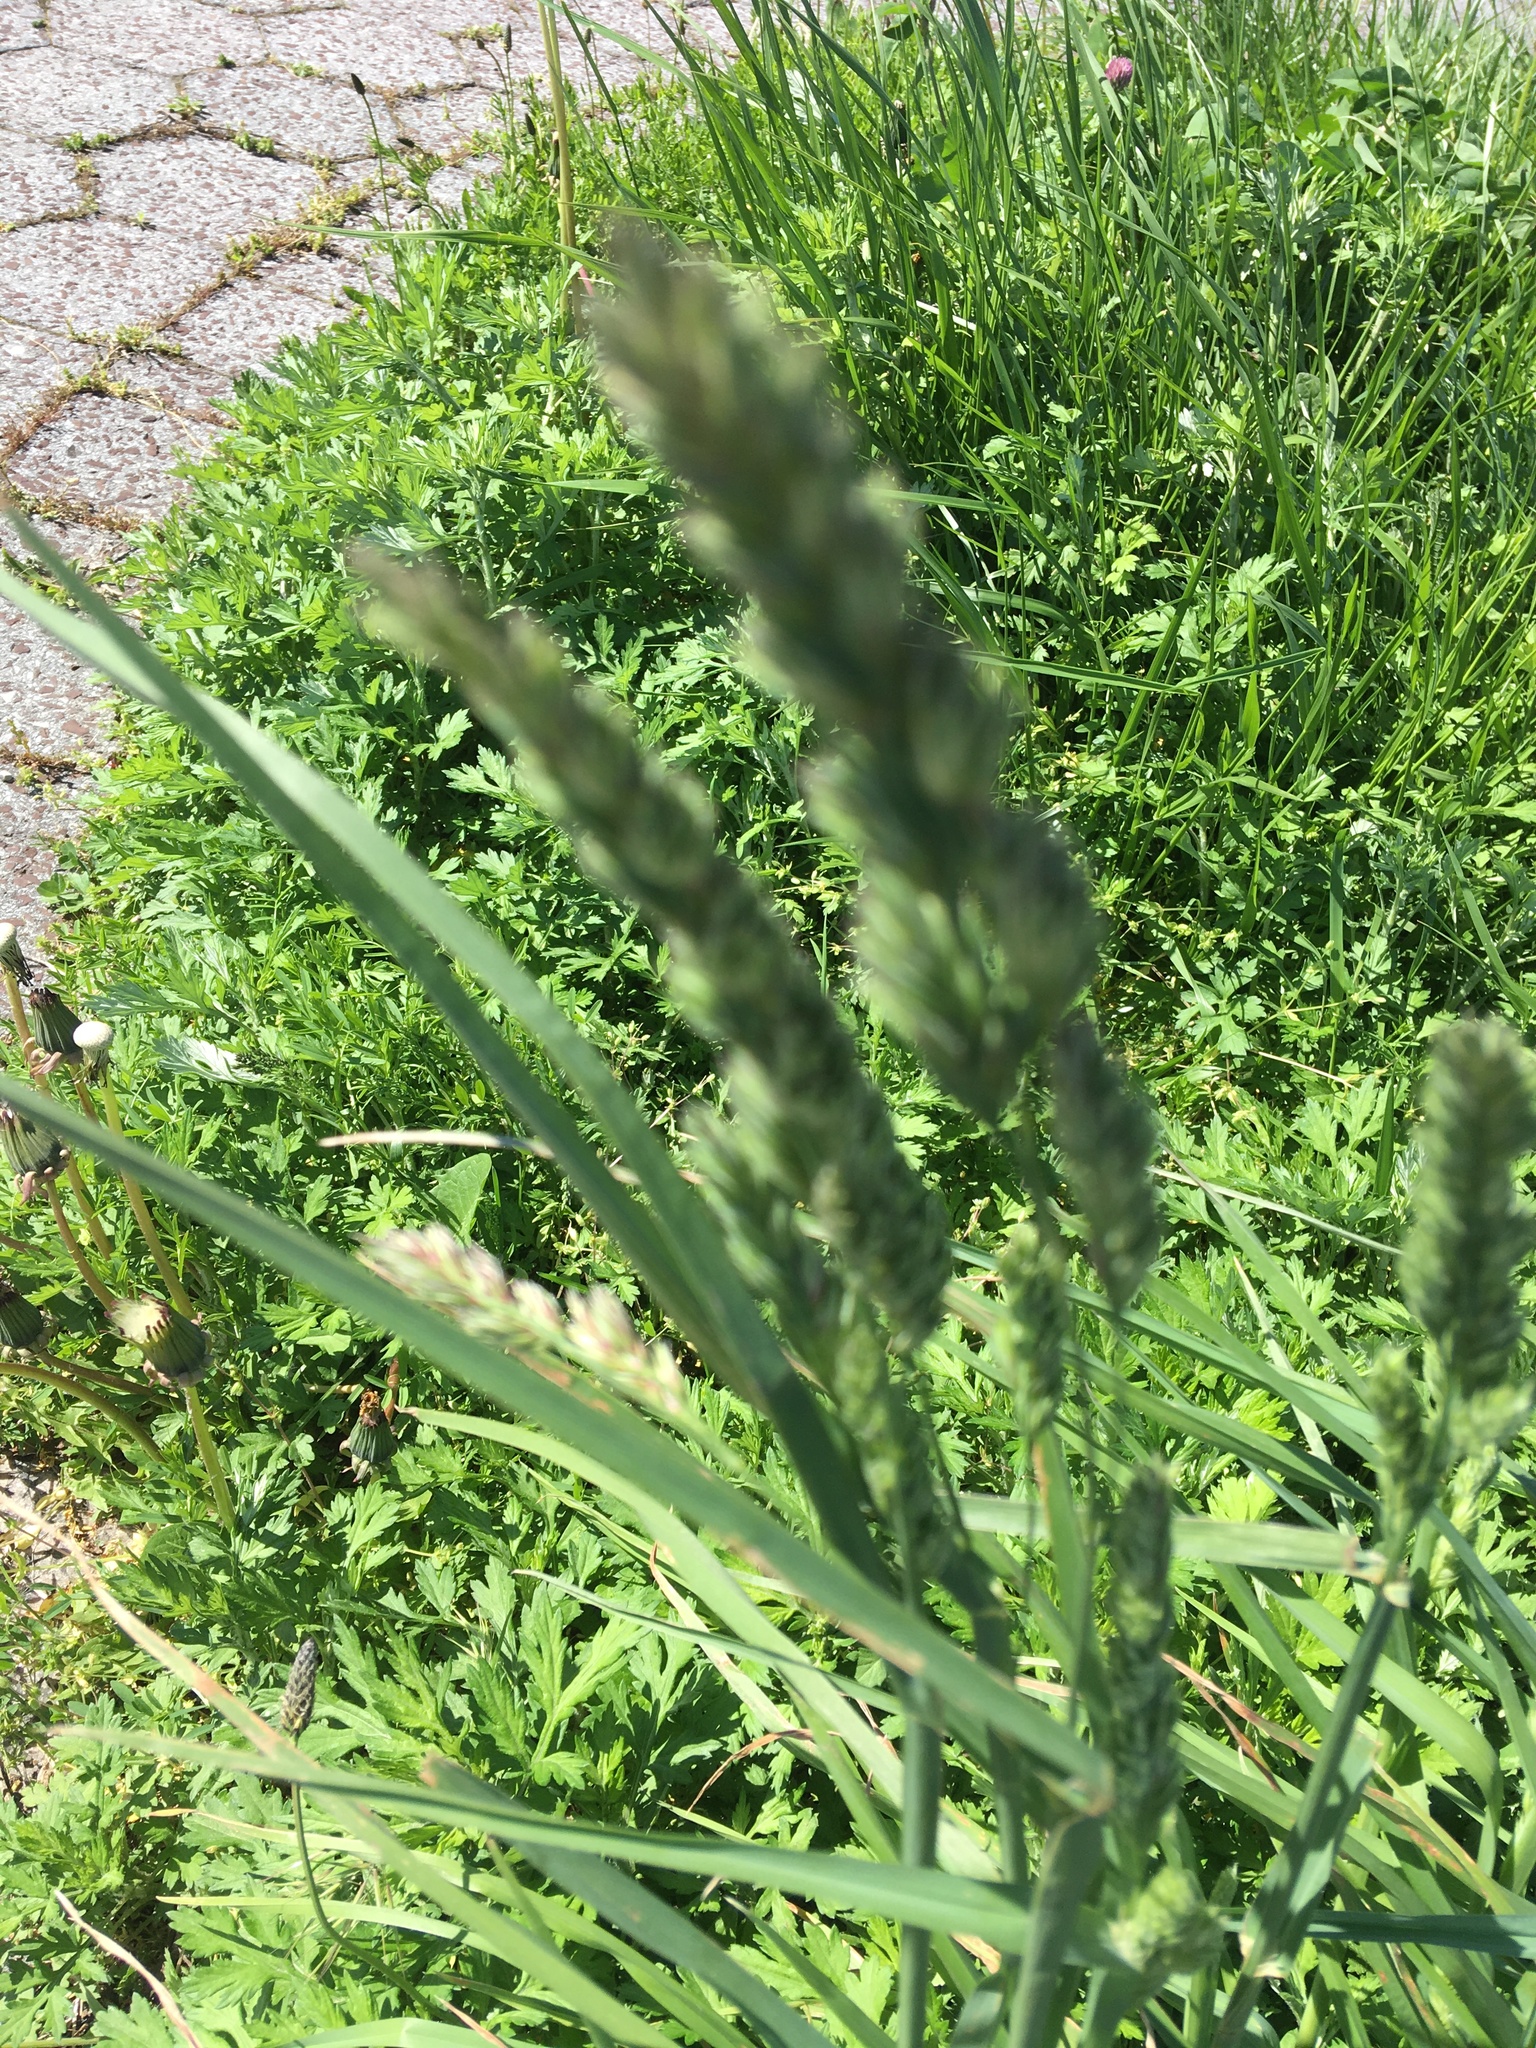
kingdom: Plantae
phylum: Tracheophyta
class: Liliopsida
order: Poales
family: Poaceae
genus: Dactylis
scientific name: Dactylis glomerata
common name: Orchardgrass
